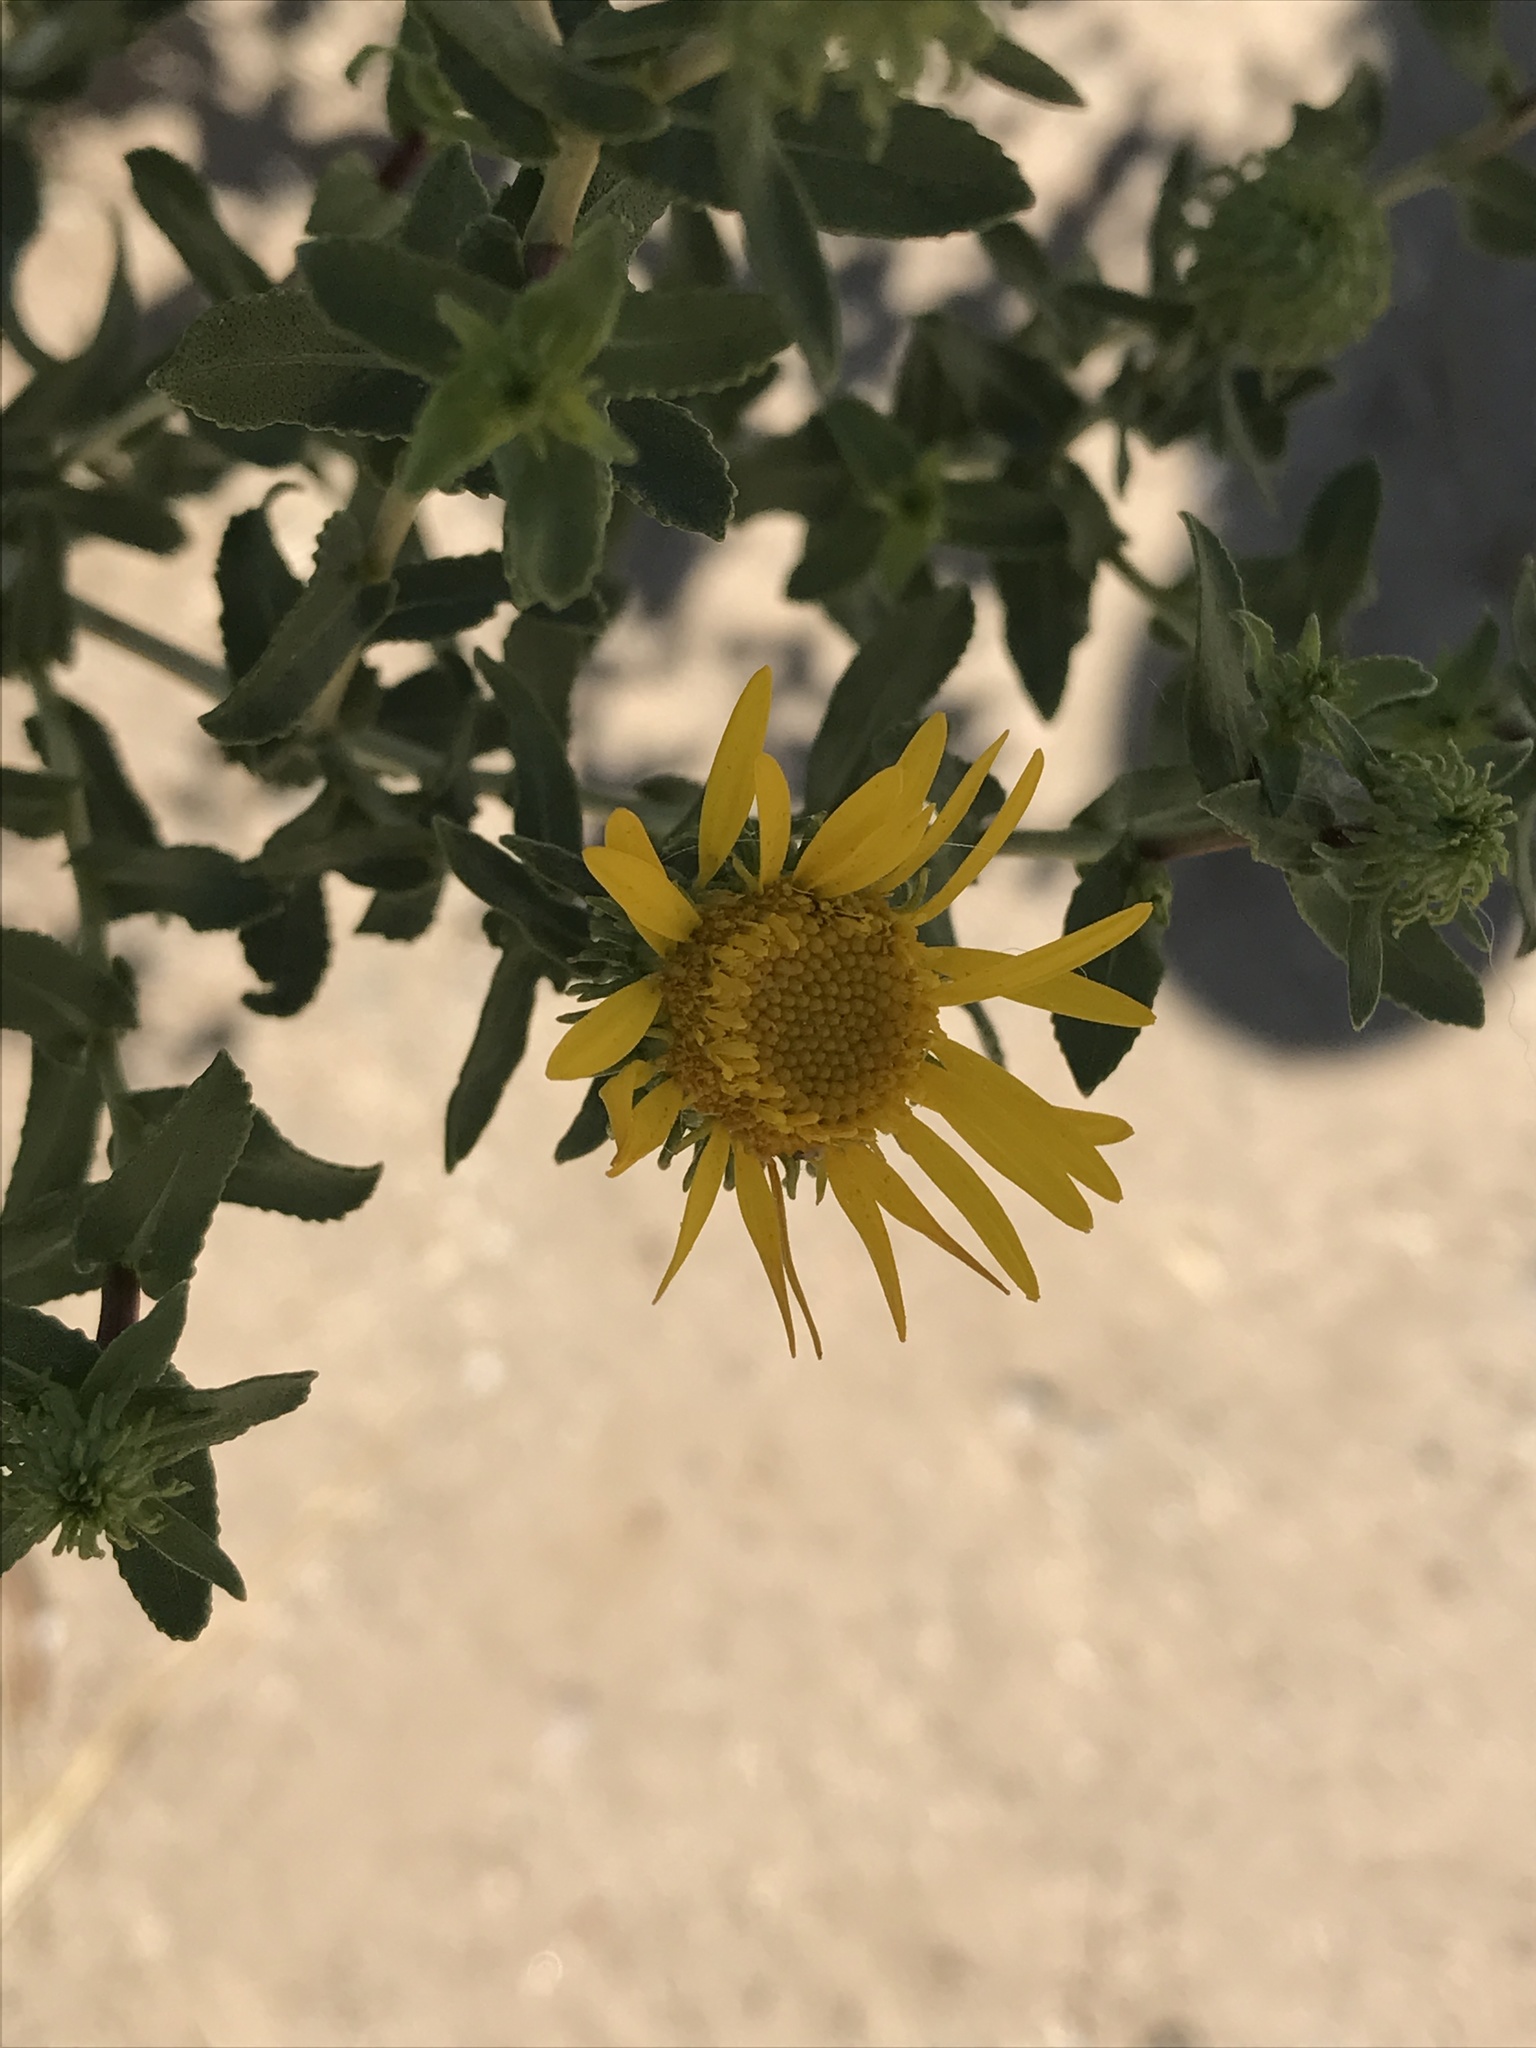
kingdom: Plantae
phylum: Tracheophyta
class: Magnoliopsida
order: Asterales
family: Asteraceae
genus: Grindelia
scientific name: Grindelia squarrosa
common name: Curly-cup gumweed
